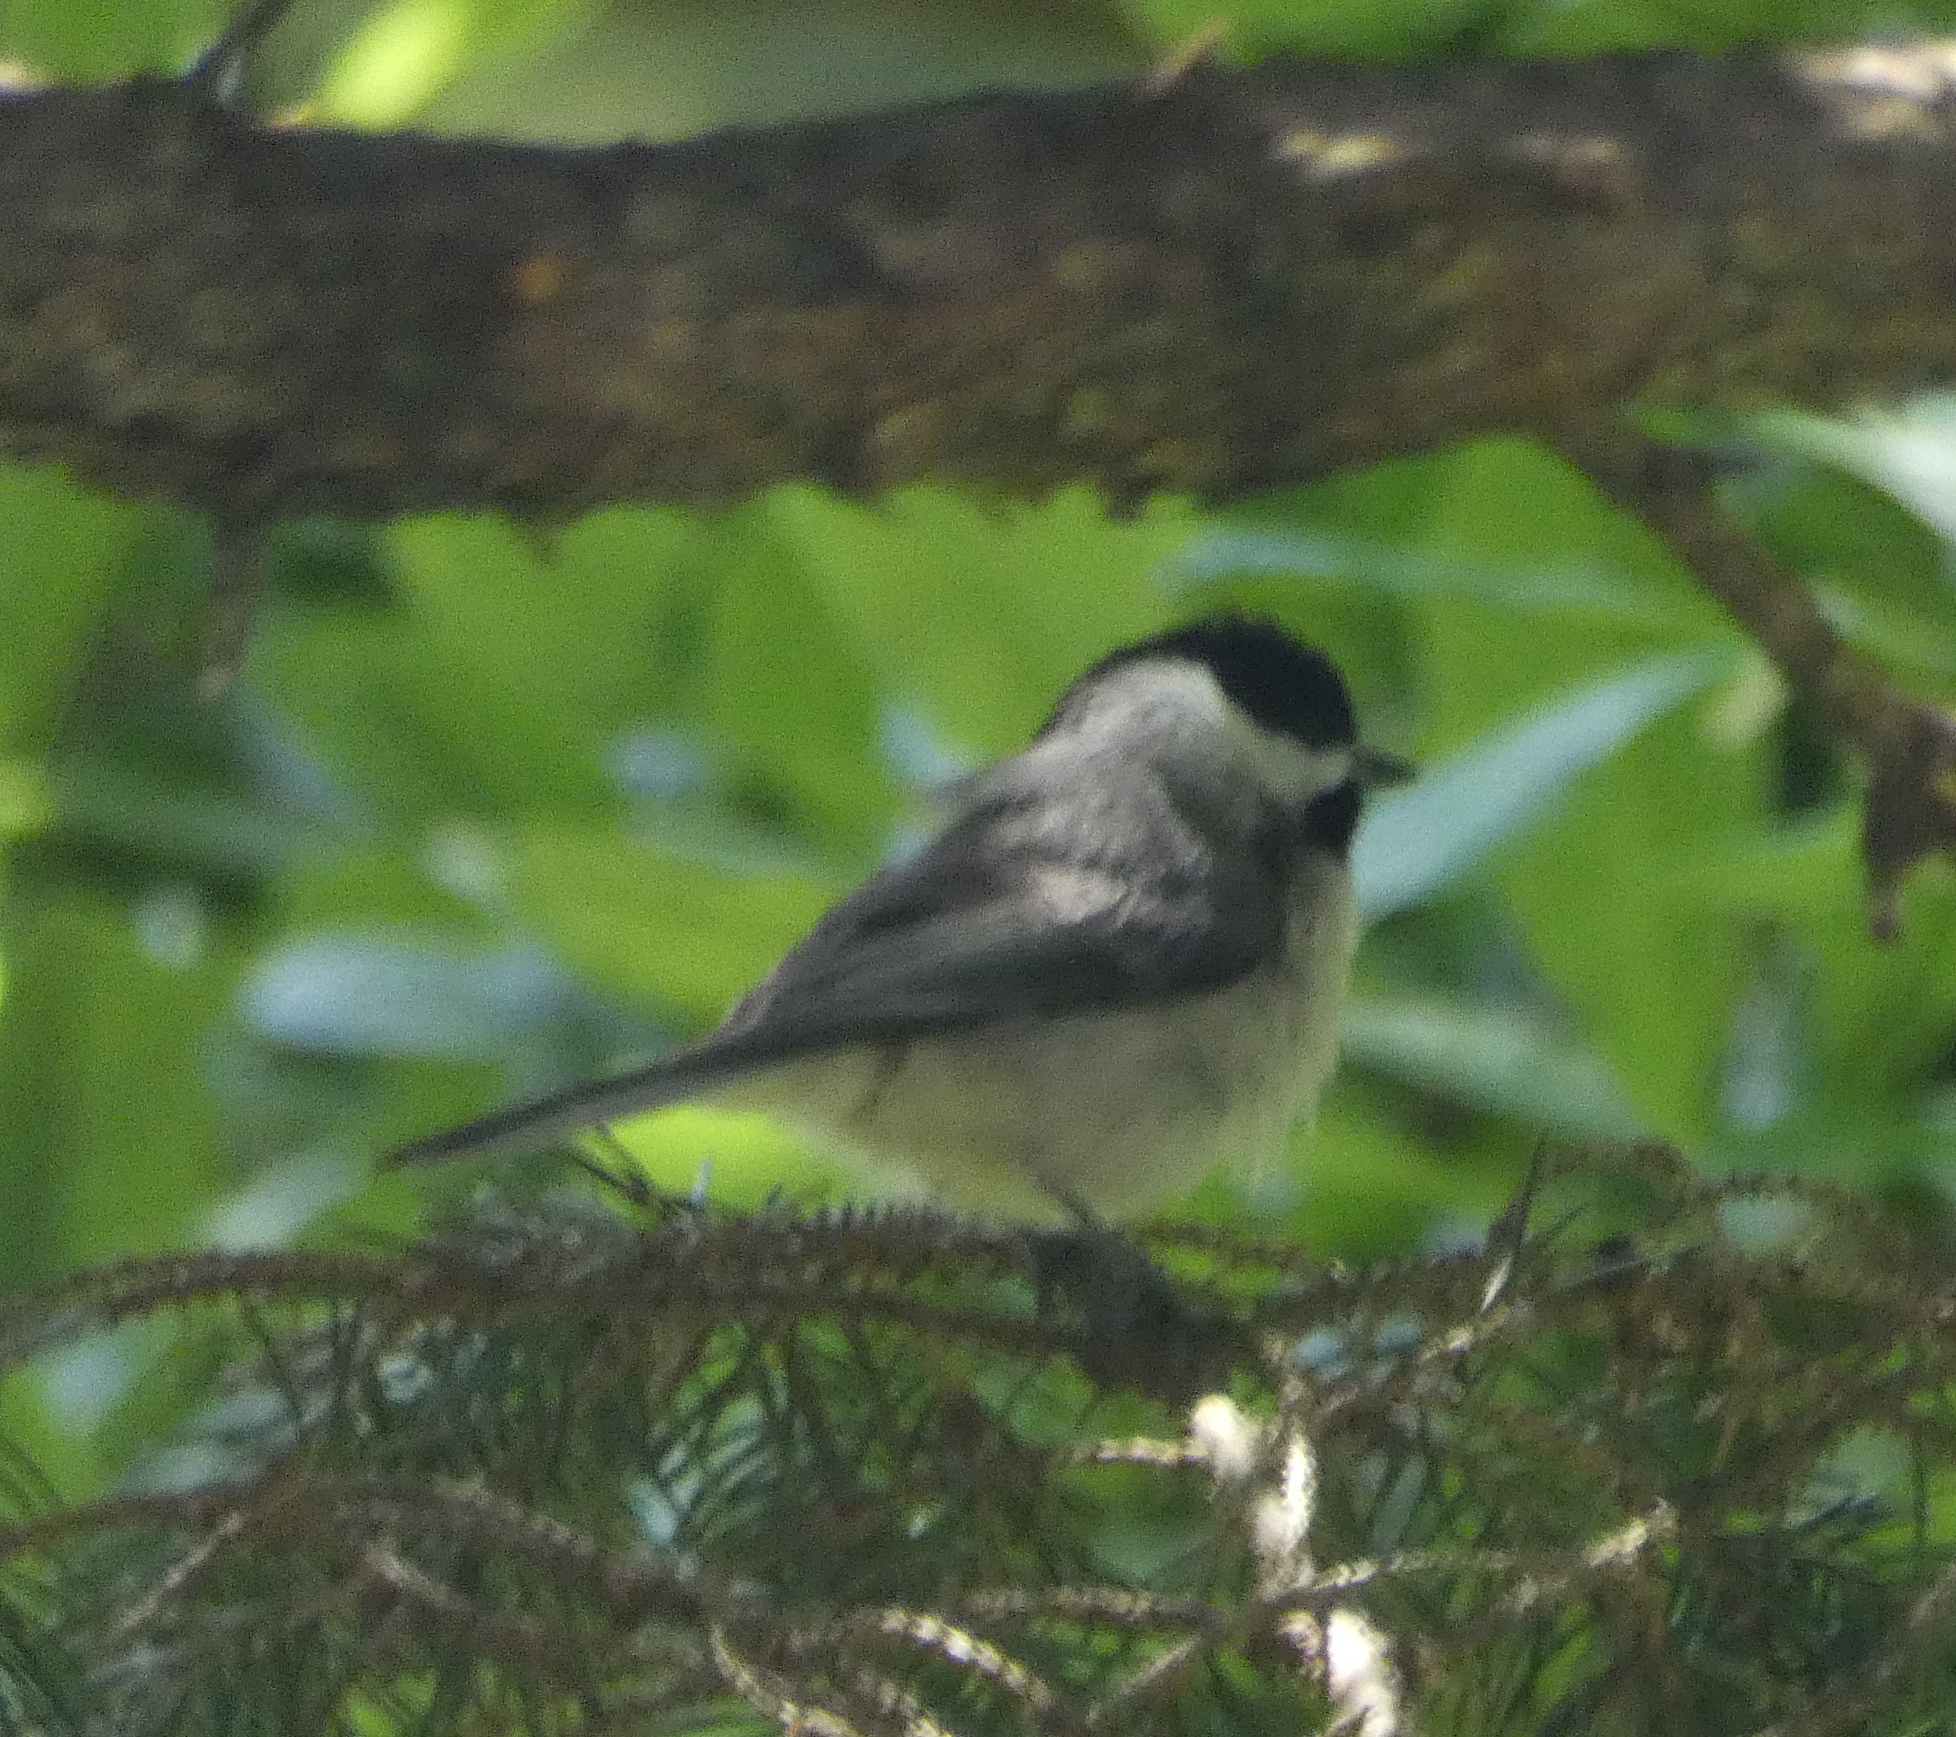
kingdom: Animalia
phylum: Chordata
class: Aves
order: Passeriformes
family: Paridae
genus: Poecile
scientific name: Poecile carolinensis
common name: Carolina chickadee
